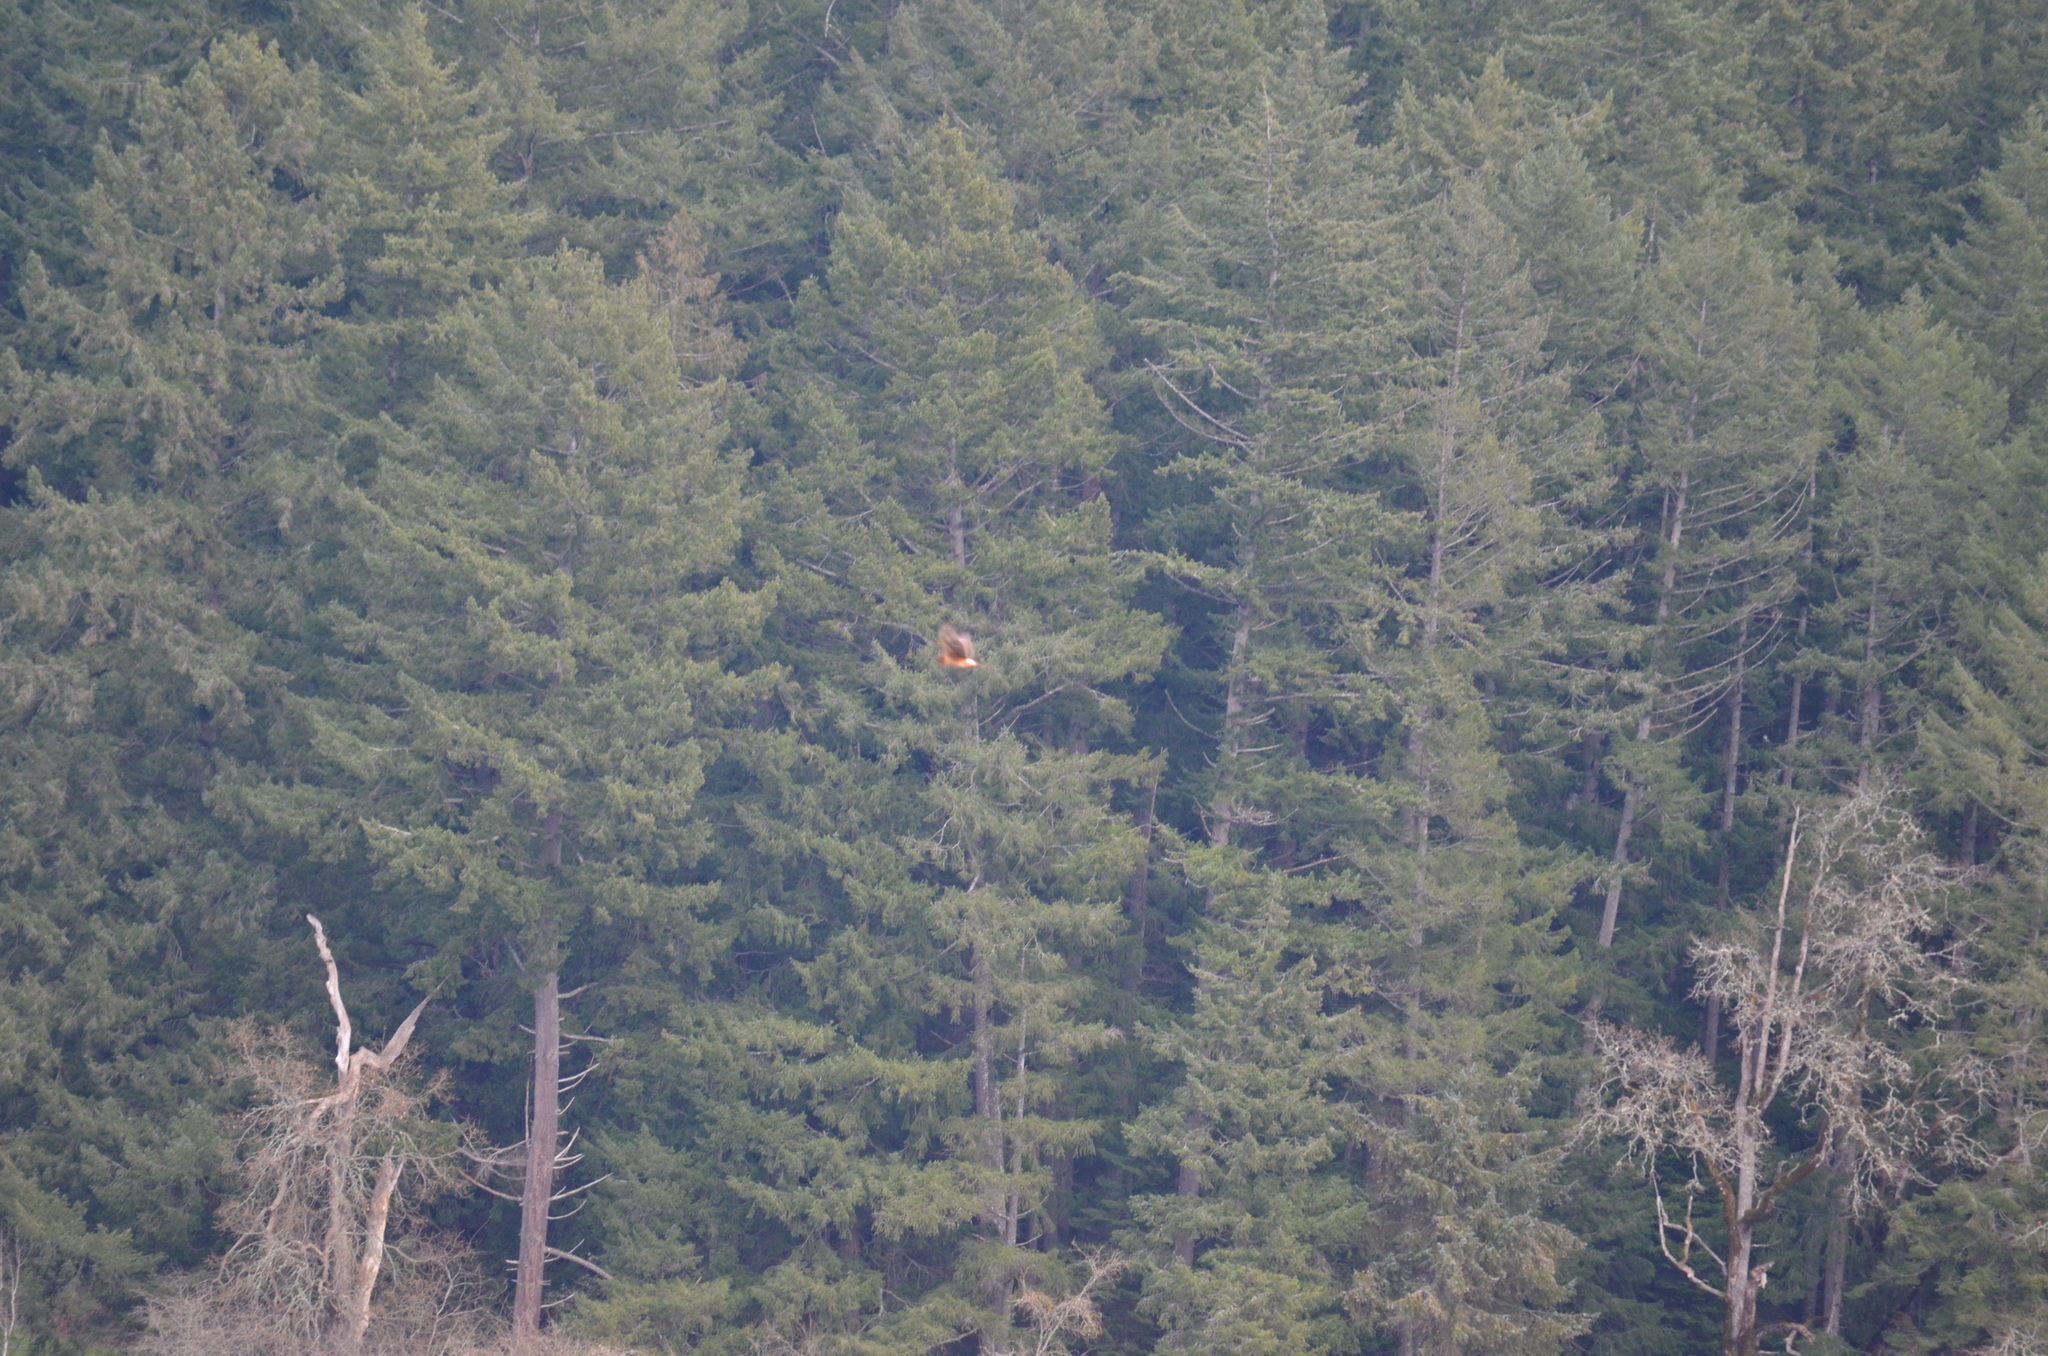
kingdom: Animalia
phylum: Chordata
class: Aves
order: Accipitriformes
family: Accipitridae
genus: Circus
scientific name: Circus cyaneus
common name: Hen harrier
